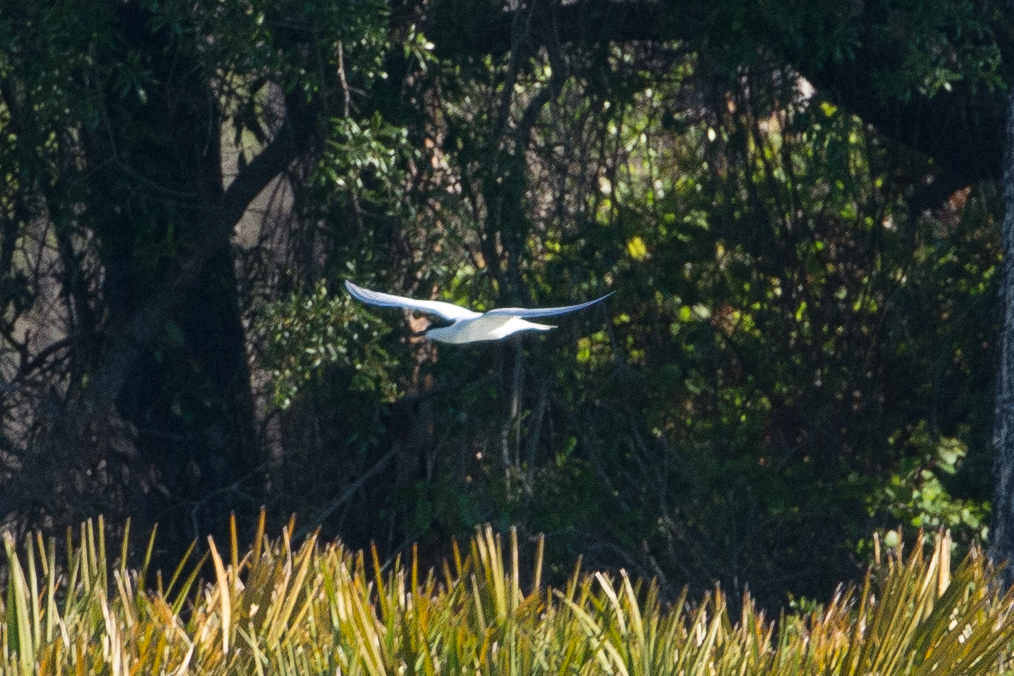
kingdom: Animalia
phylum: Chordata
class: Aves
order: Charadriiformes
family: Laridae
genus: Gelochelidon
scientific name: Gelochelidon nilotica
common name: Gull-billed tern
